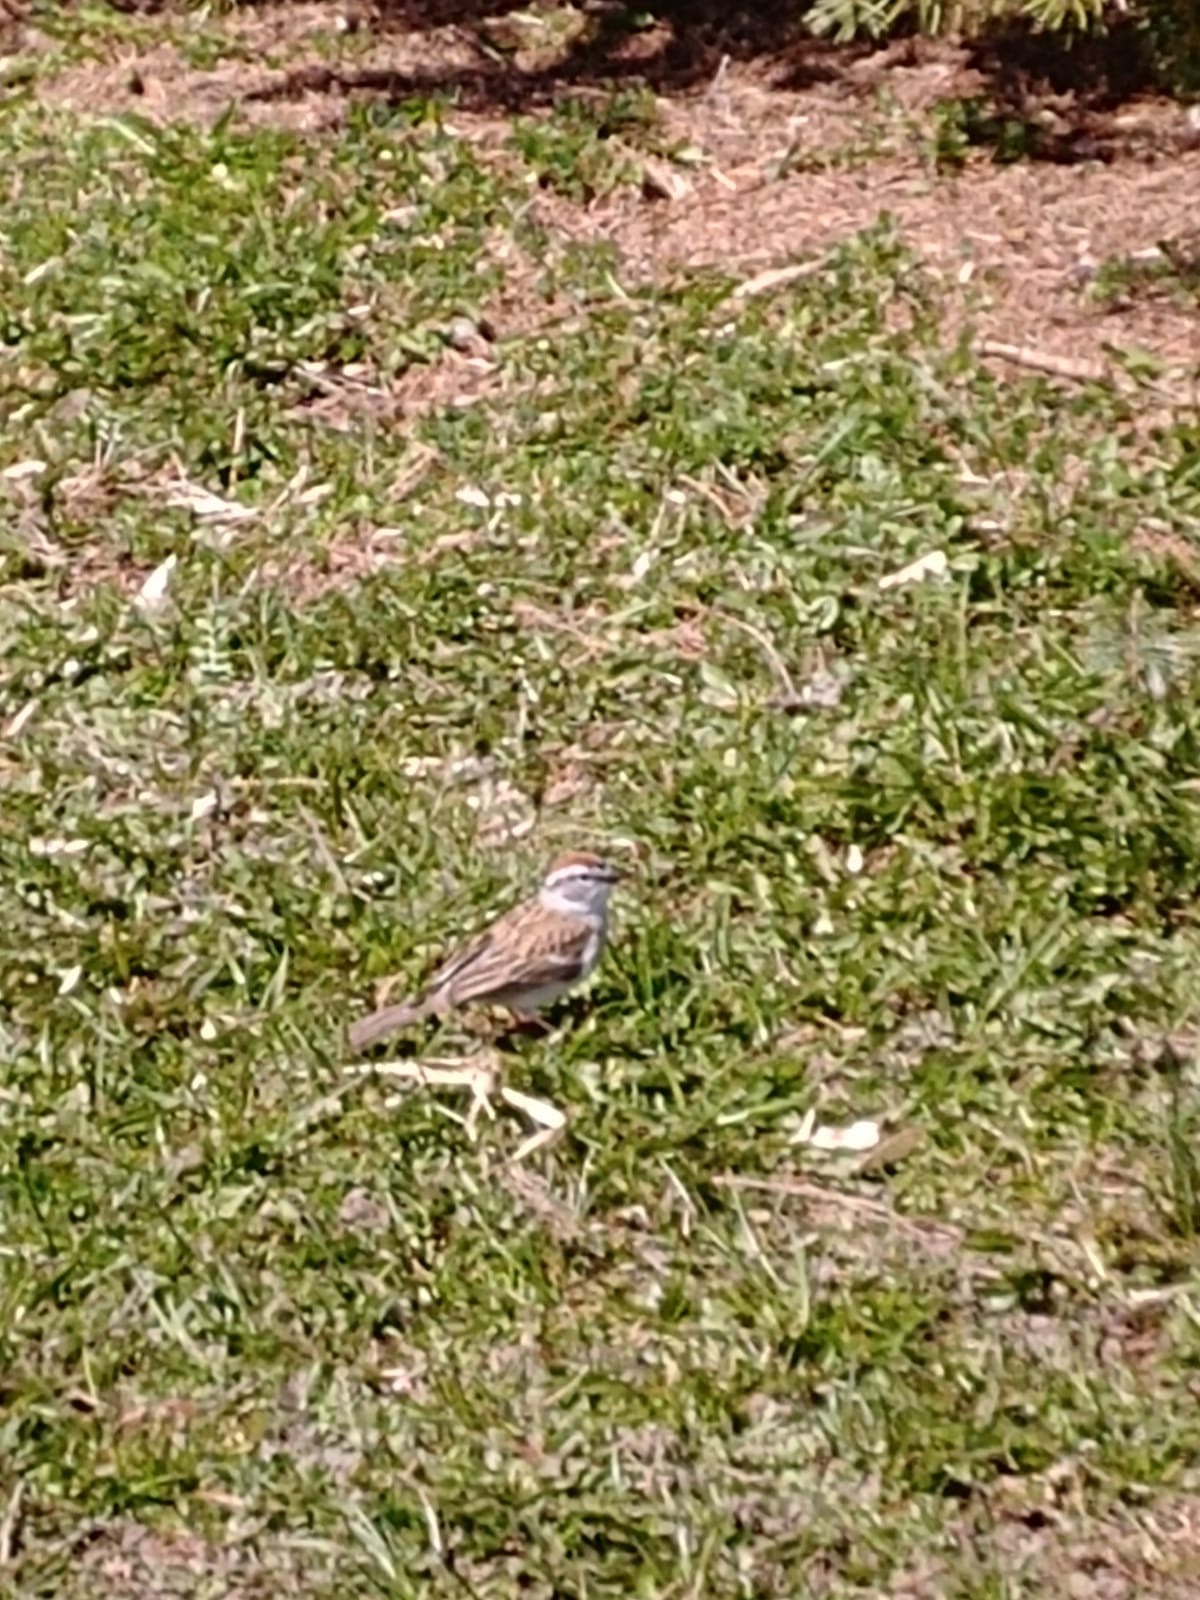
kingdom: Animalia
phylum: Chordata
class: Aves
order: Passeriformes
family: Passerellidae
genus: Spizella
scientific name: Spizella passerina
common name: Chipping sparrow
